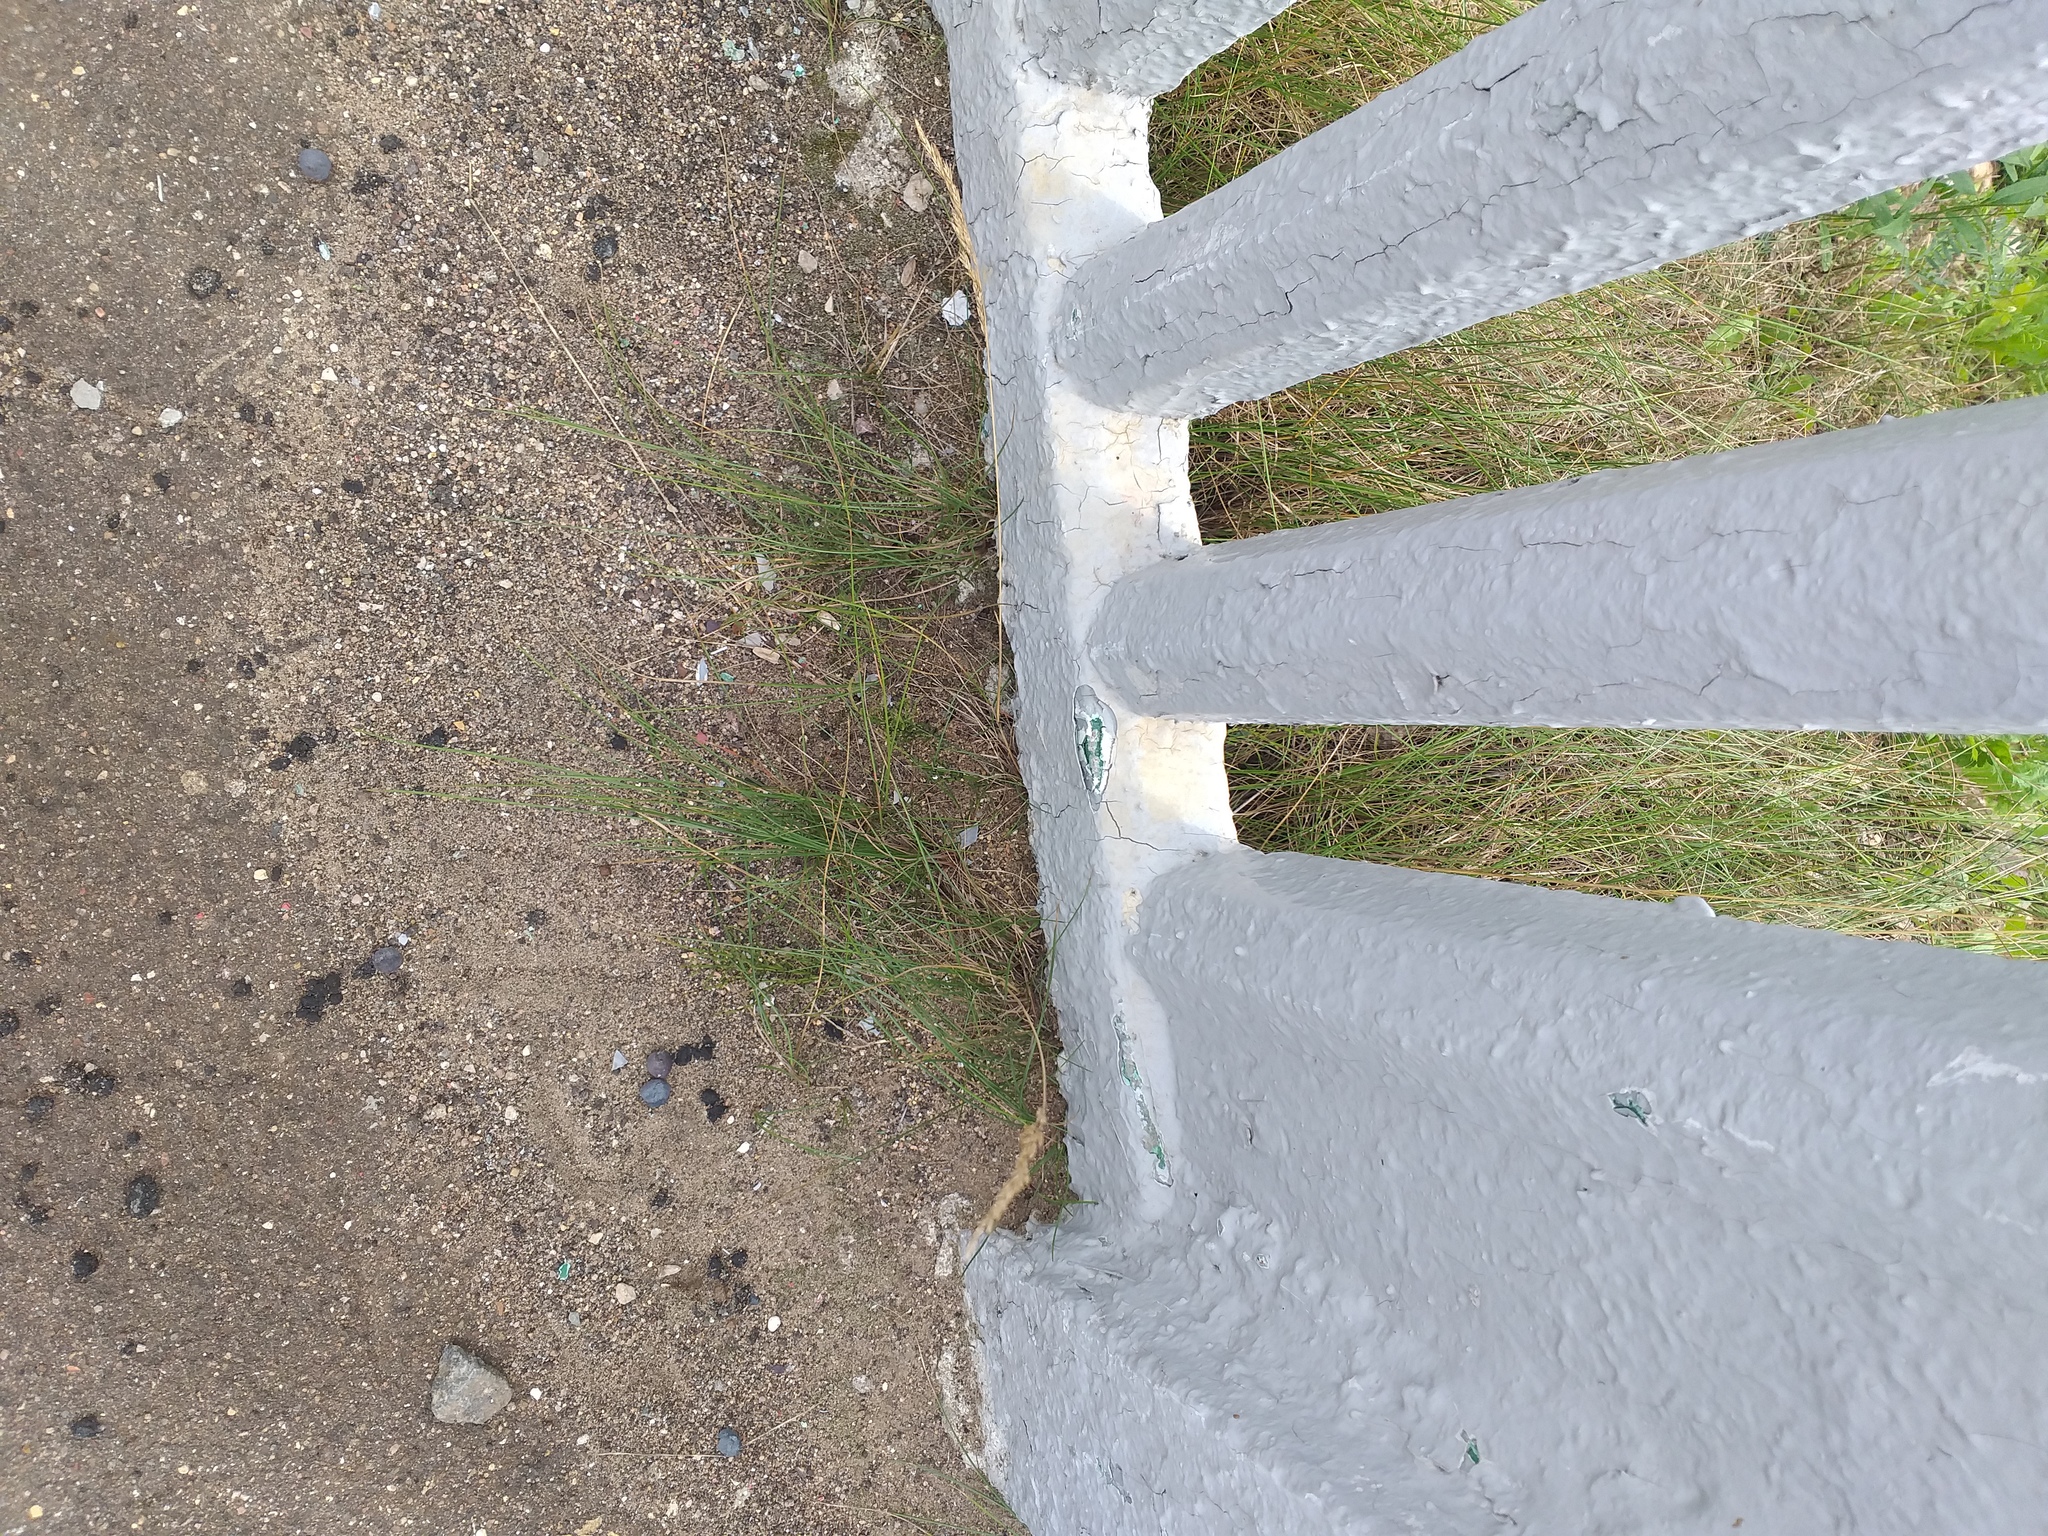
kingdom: Plantae
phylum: Tracheophyta
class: Liliopsida
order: Poales
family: Poaceae
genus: Festuca
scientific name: Festuca rubra
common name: Red fescue
